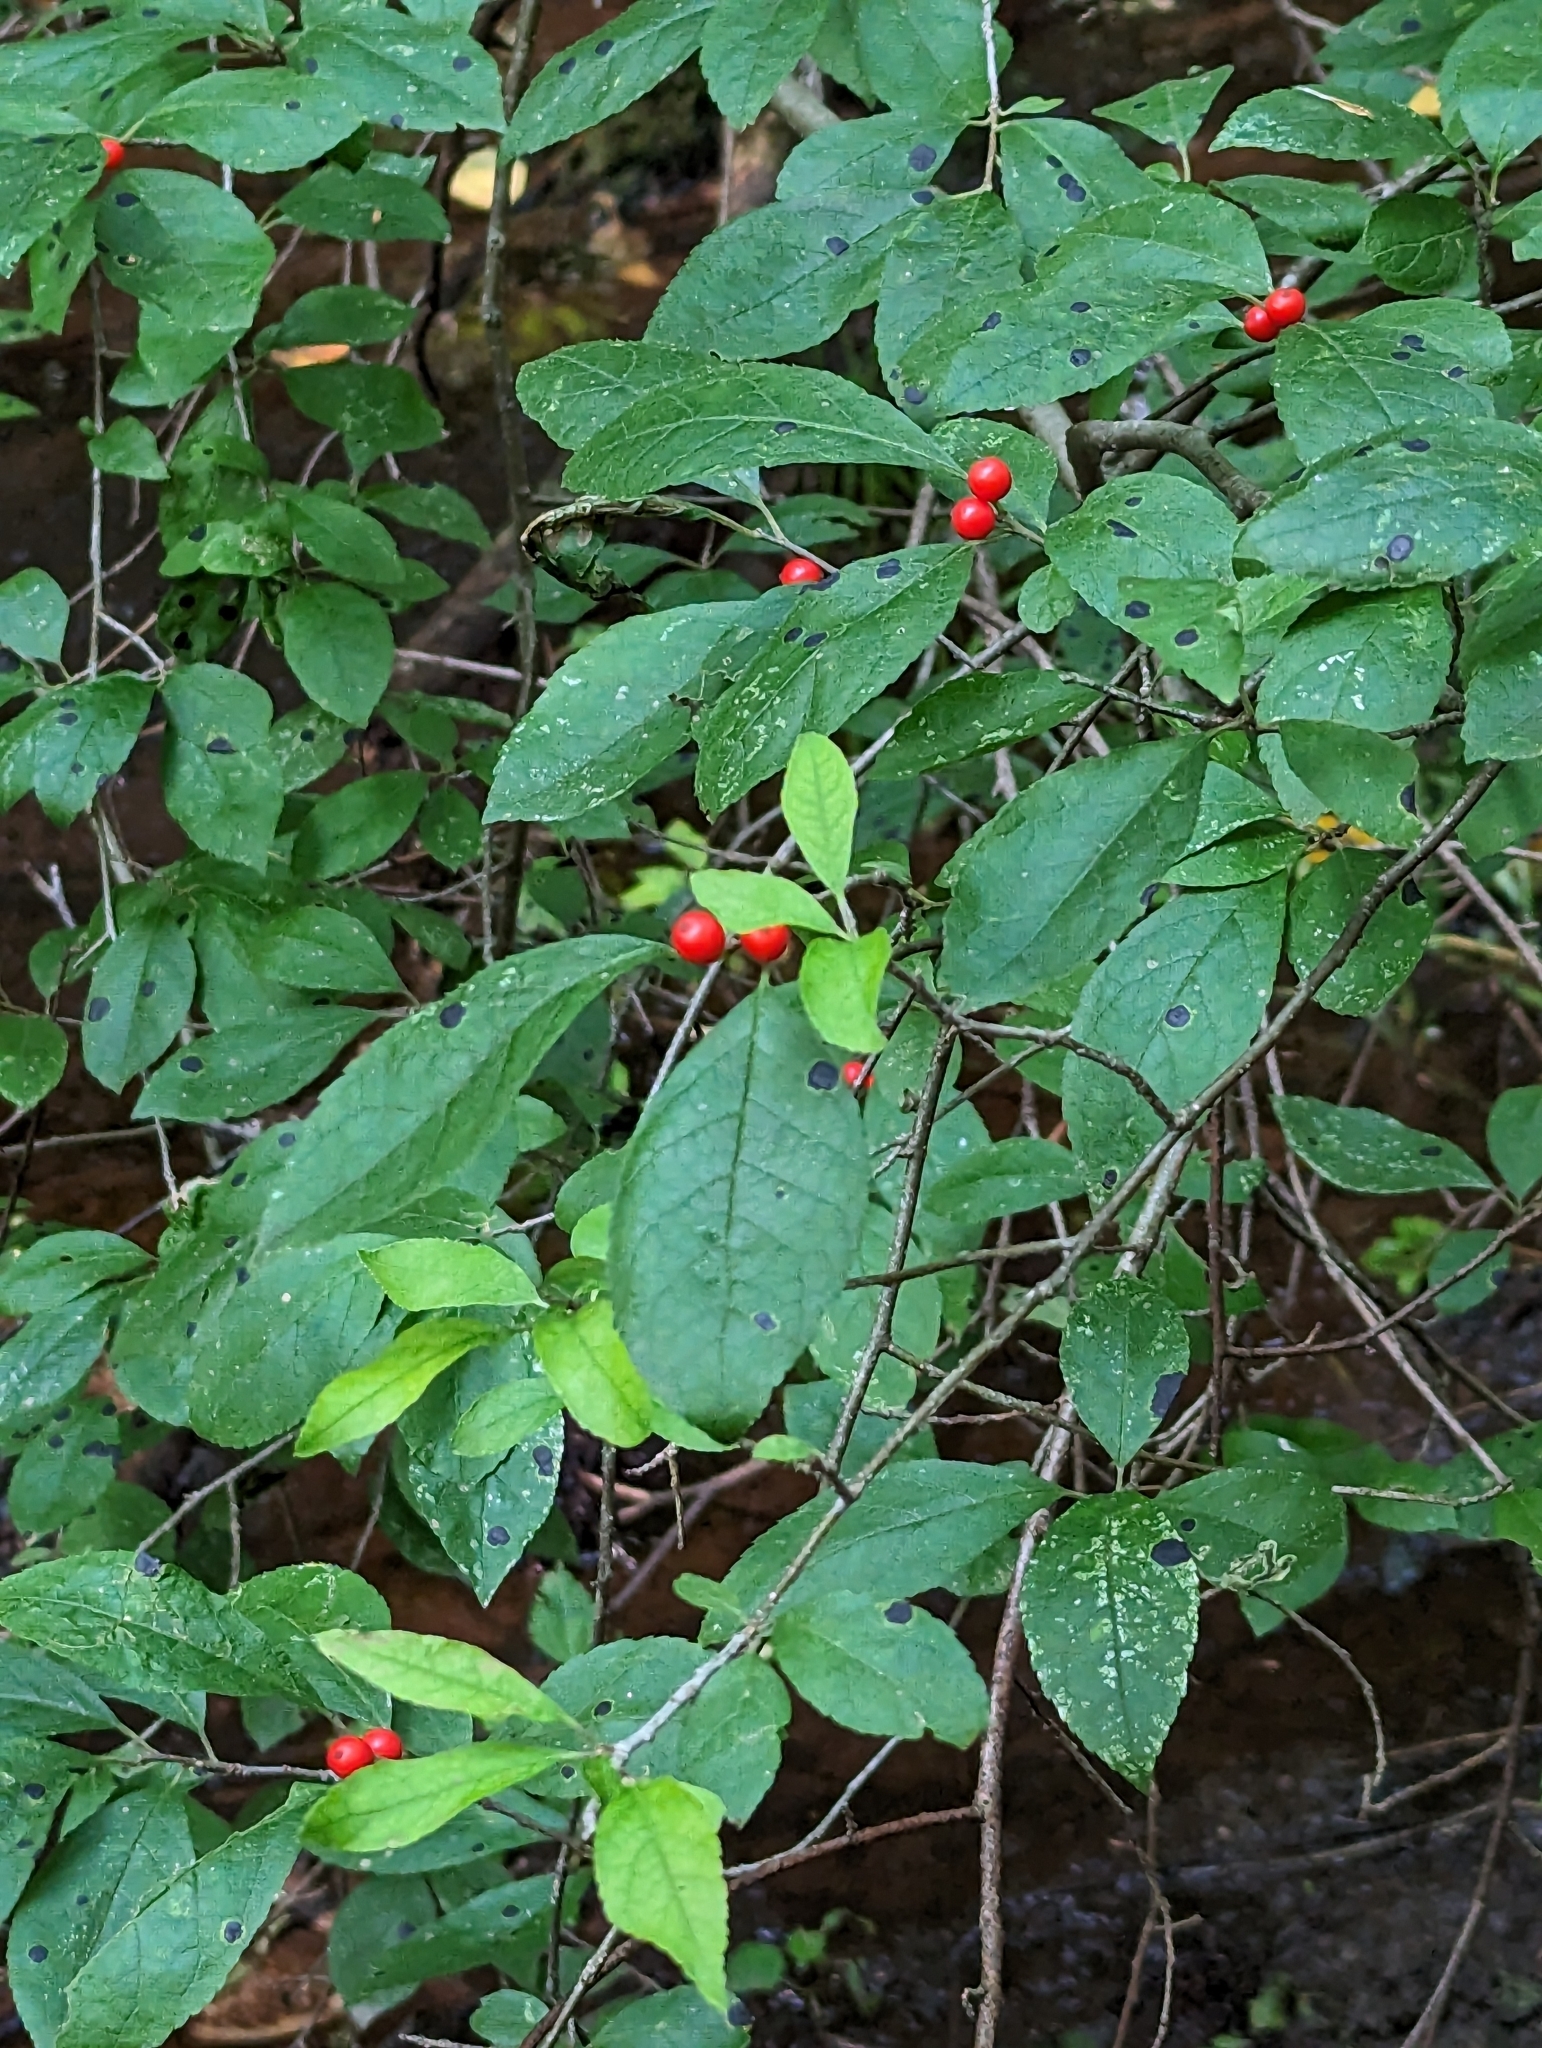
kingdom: Plantae
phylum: Tracheophyta
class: Magnoliopsida
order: Aquifoliales
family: Aquifoliaceae
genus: Ilex
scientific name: Ilex verticillata
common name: Virginia winterberry
